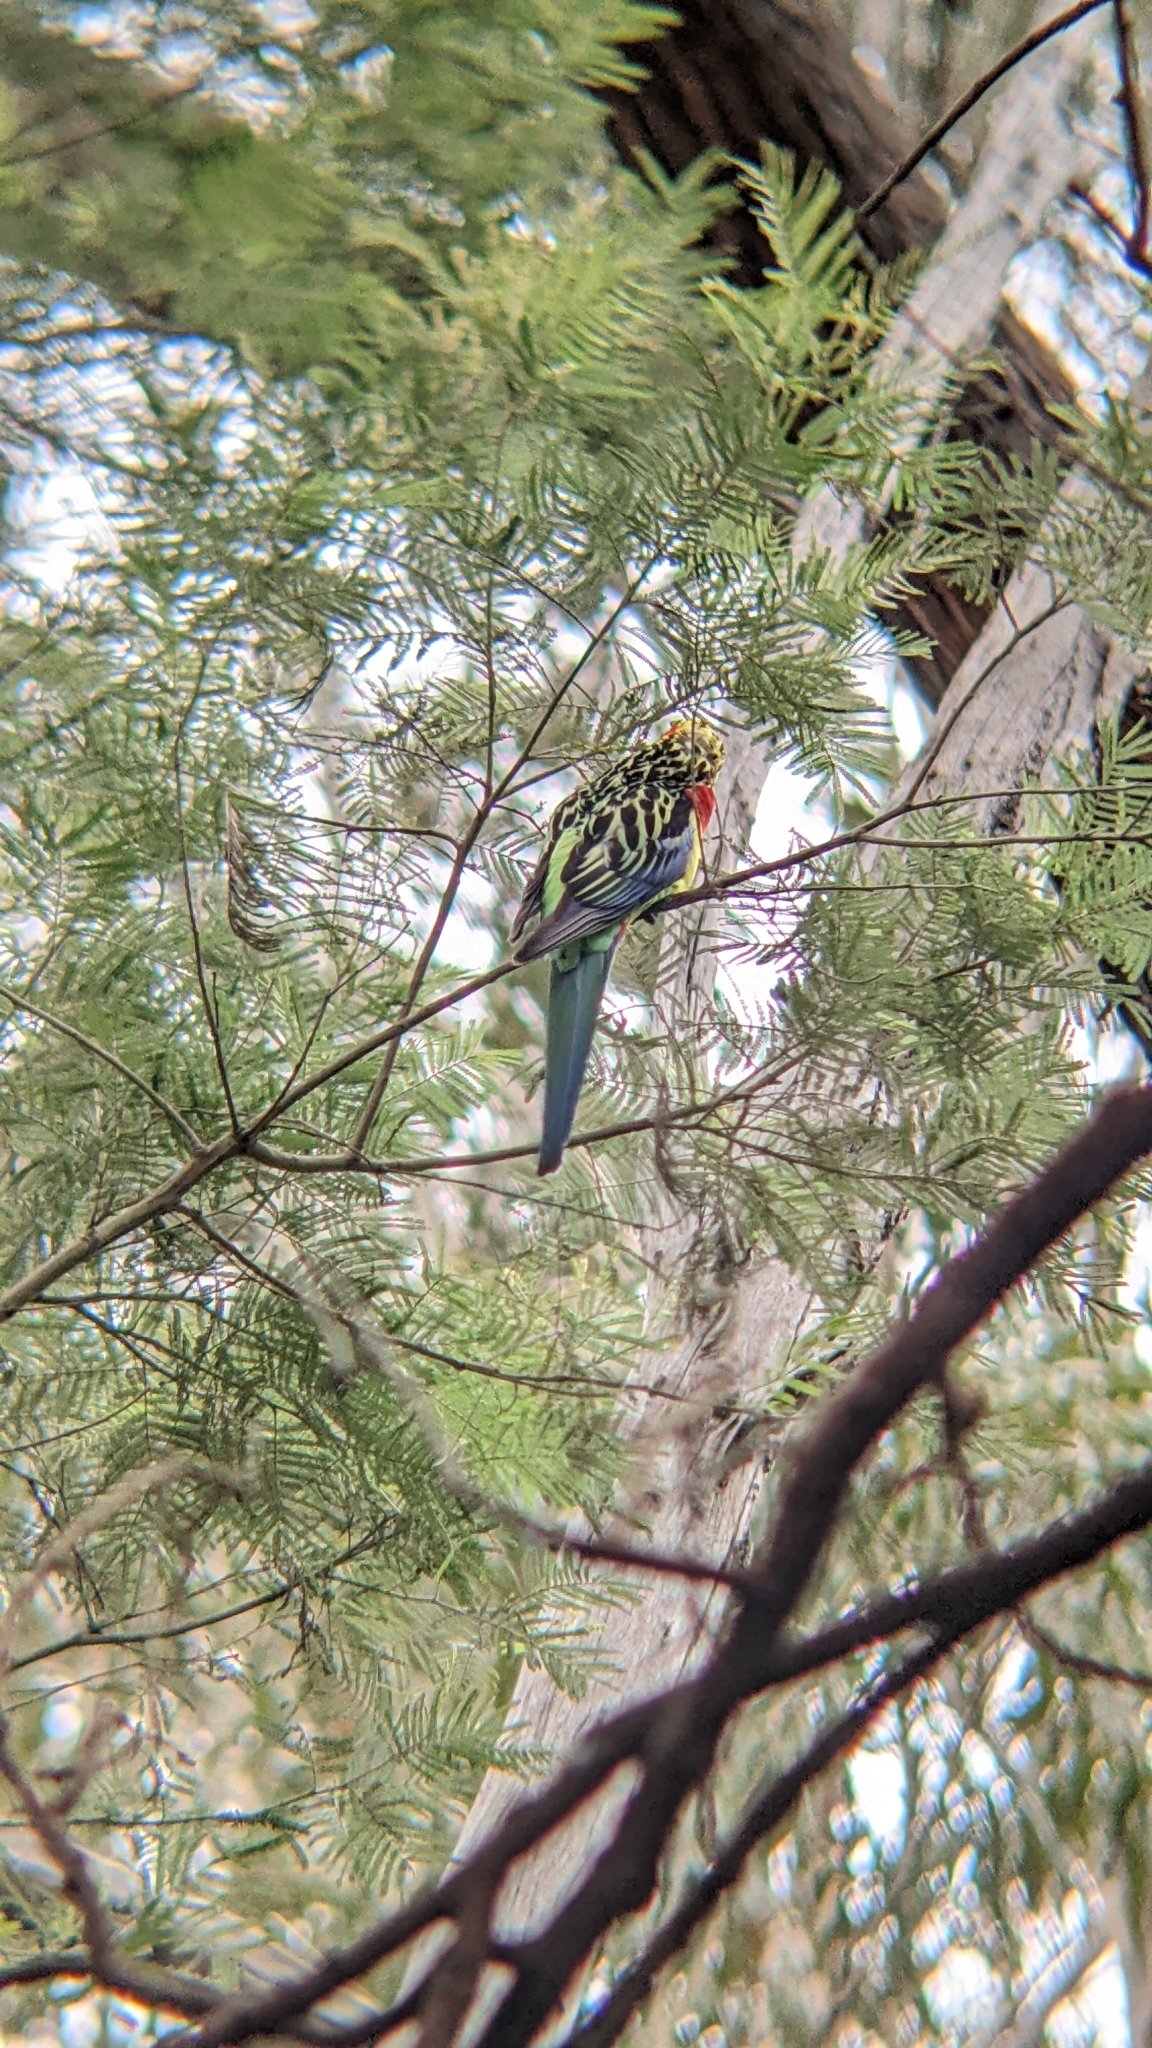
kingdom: Animalia
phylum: Chordata
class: Aves
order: Psittaciformes
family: Psittacidae
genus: Platycercus
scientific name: Platycercus eximius
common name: Eastern rosella
